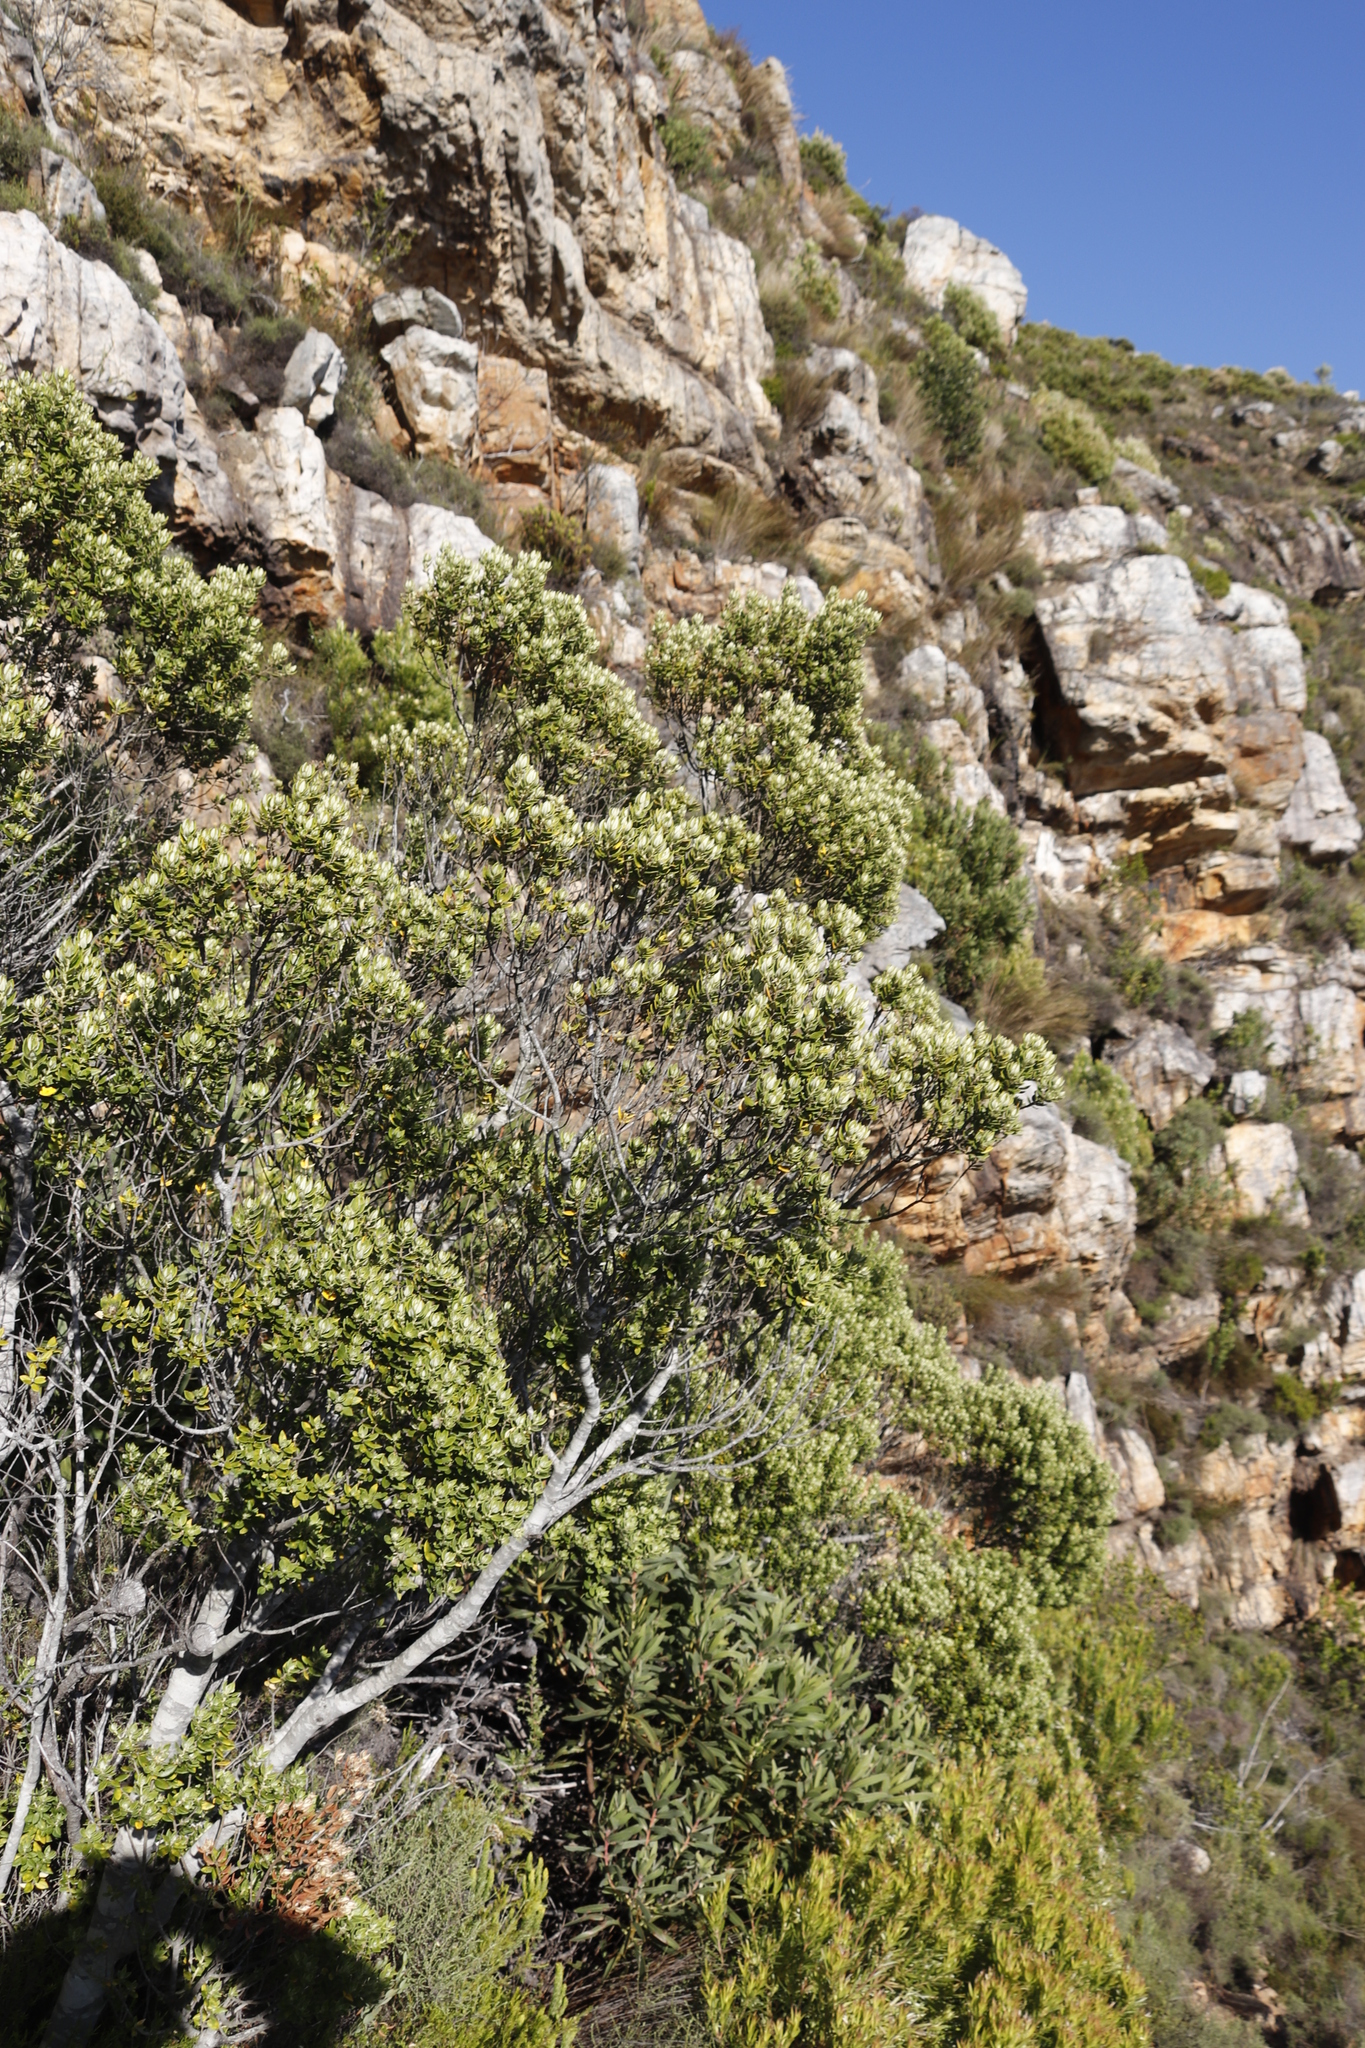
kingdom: Plantae
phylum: Tracheophyta
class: Magnoliopsida
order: Rosales
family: Rhamnaceae
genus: Phylica
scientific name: Phylica buxifolia
